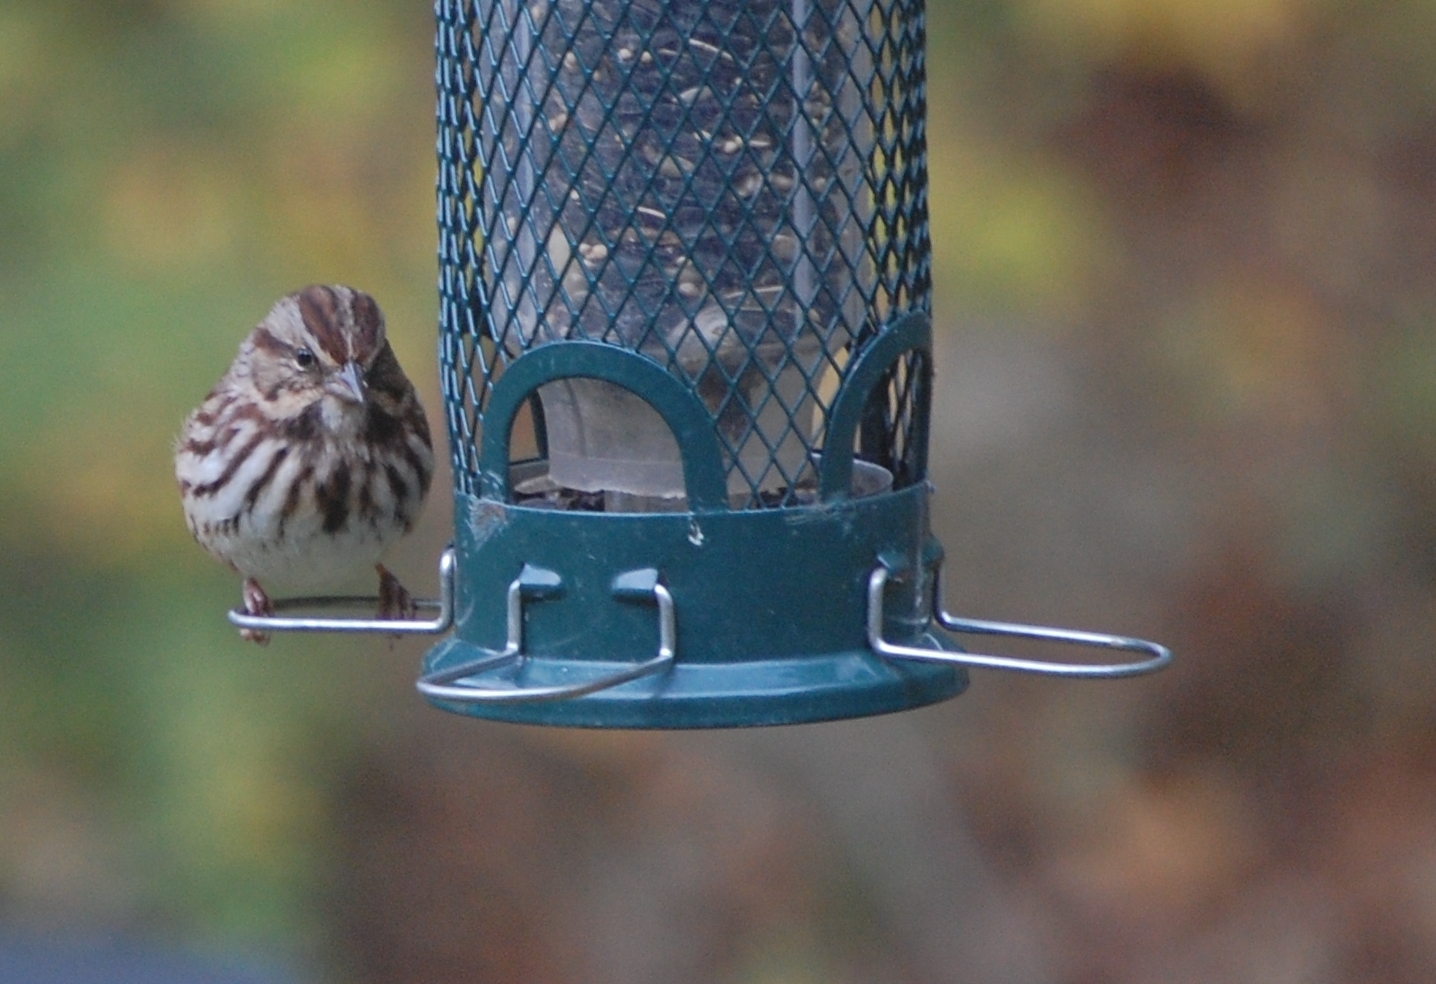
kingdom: Animalia
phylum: Chordata
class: Aves
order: Passeriformes
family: Passerellidae
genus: Melospiza
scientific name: Melospiza melodia
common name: Song sparrow
